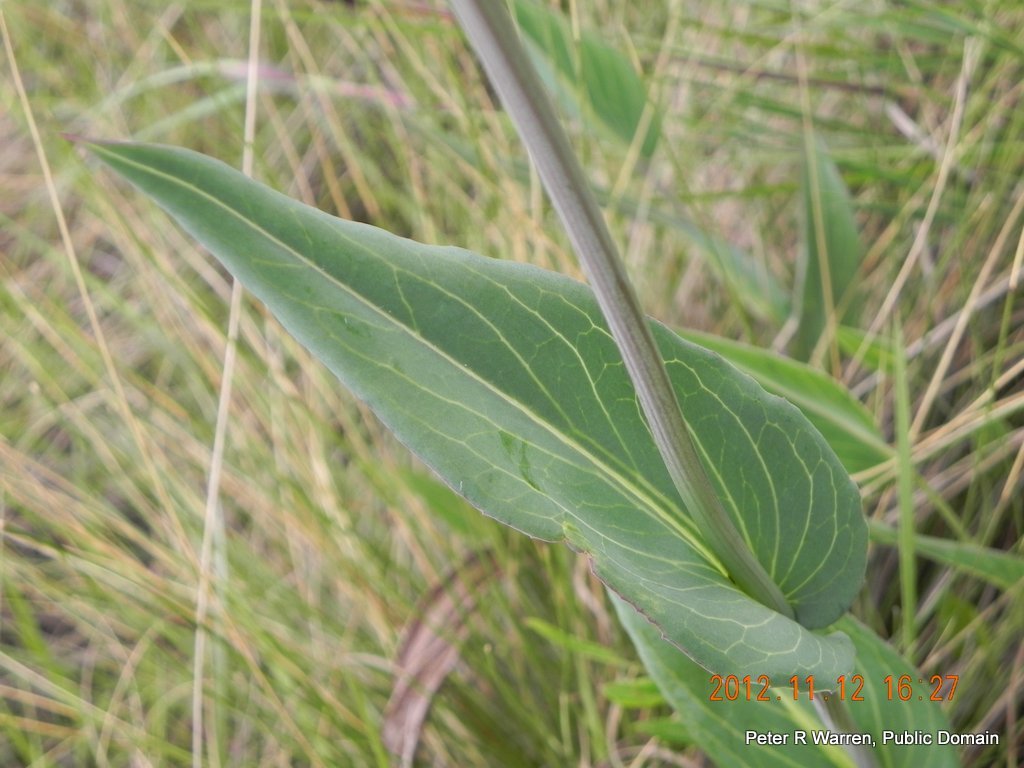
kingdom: Plantae
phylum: Tracheophyta
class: Magnoliopsida
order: Asterales
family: Asteraceae
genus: Senecio
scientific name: Senecio glaberrimus
